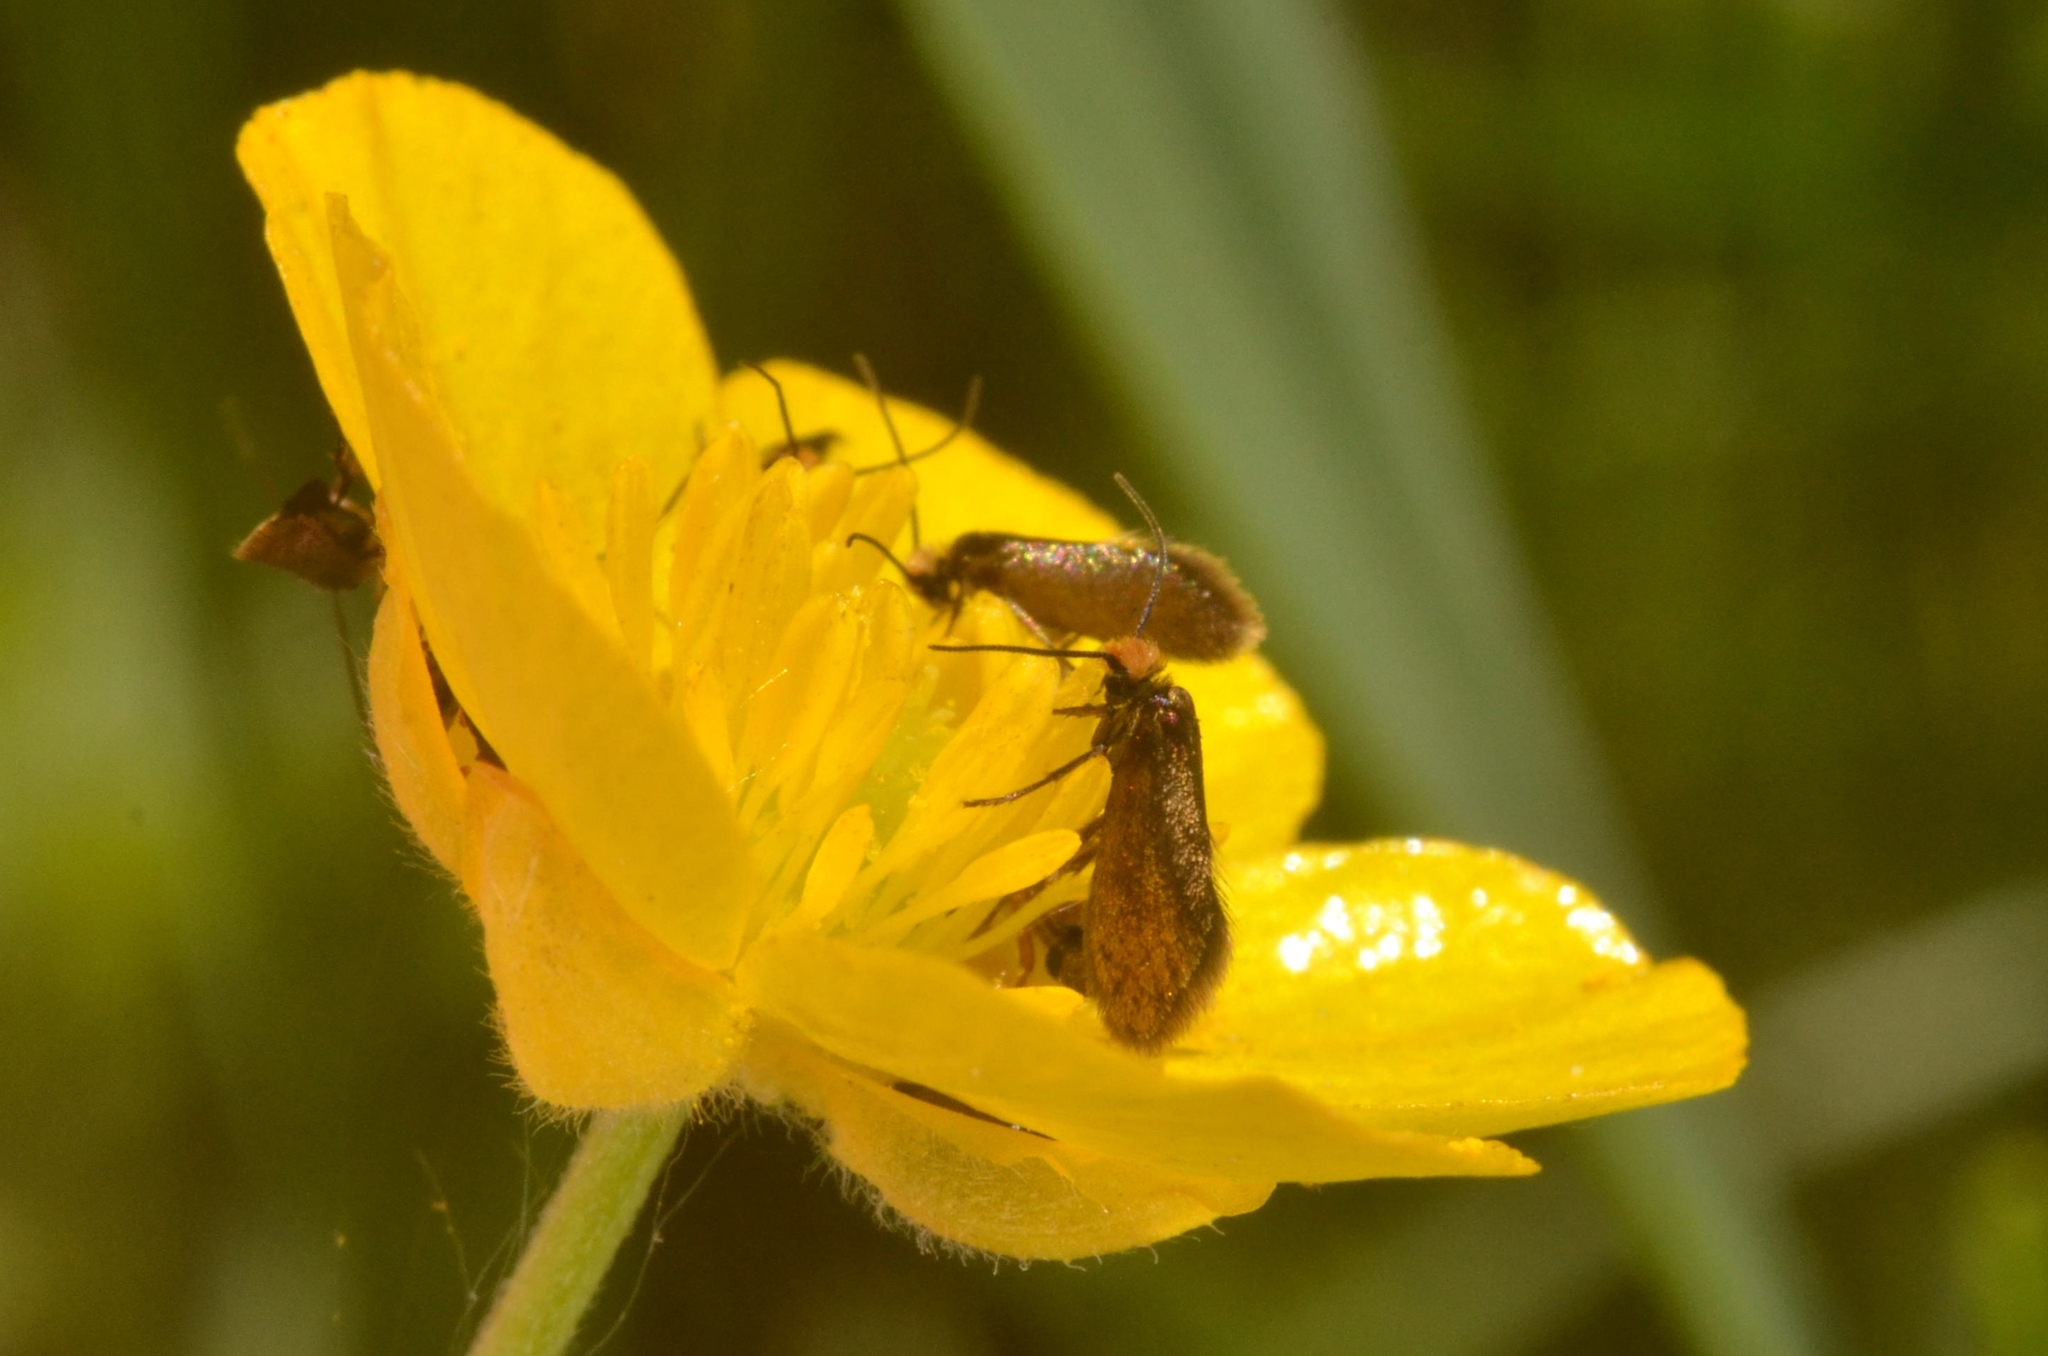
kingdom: Animalia
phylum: Arthropoda
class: Insecta
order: Lepidoptera
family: Micropterigidae
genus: Micropterix
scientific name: Micropterix calthella
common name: Plain gold
